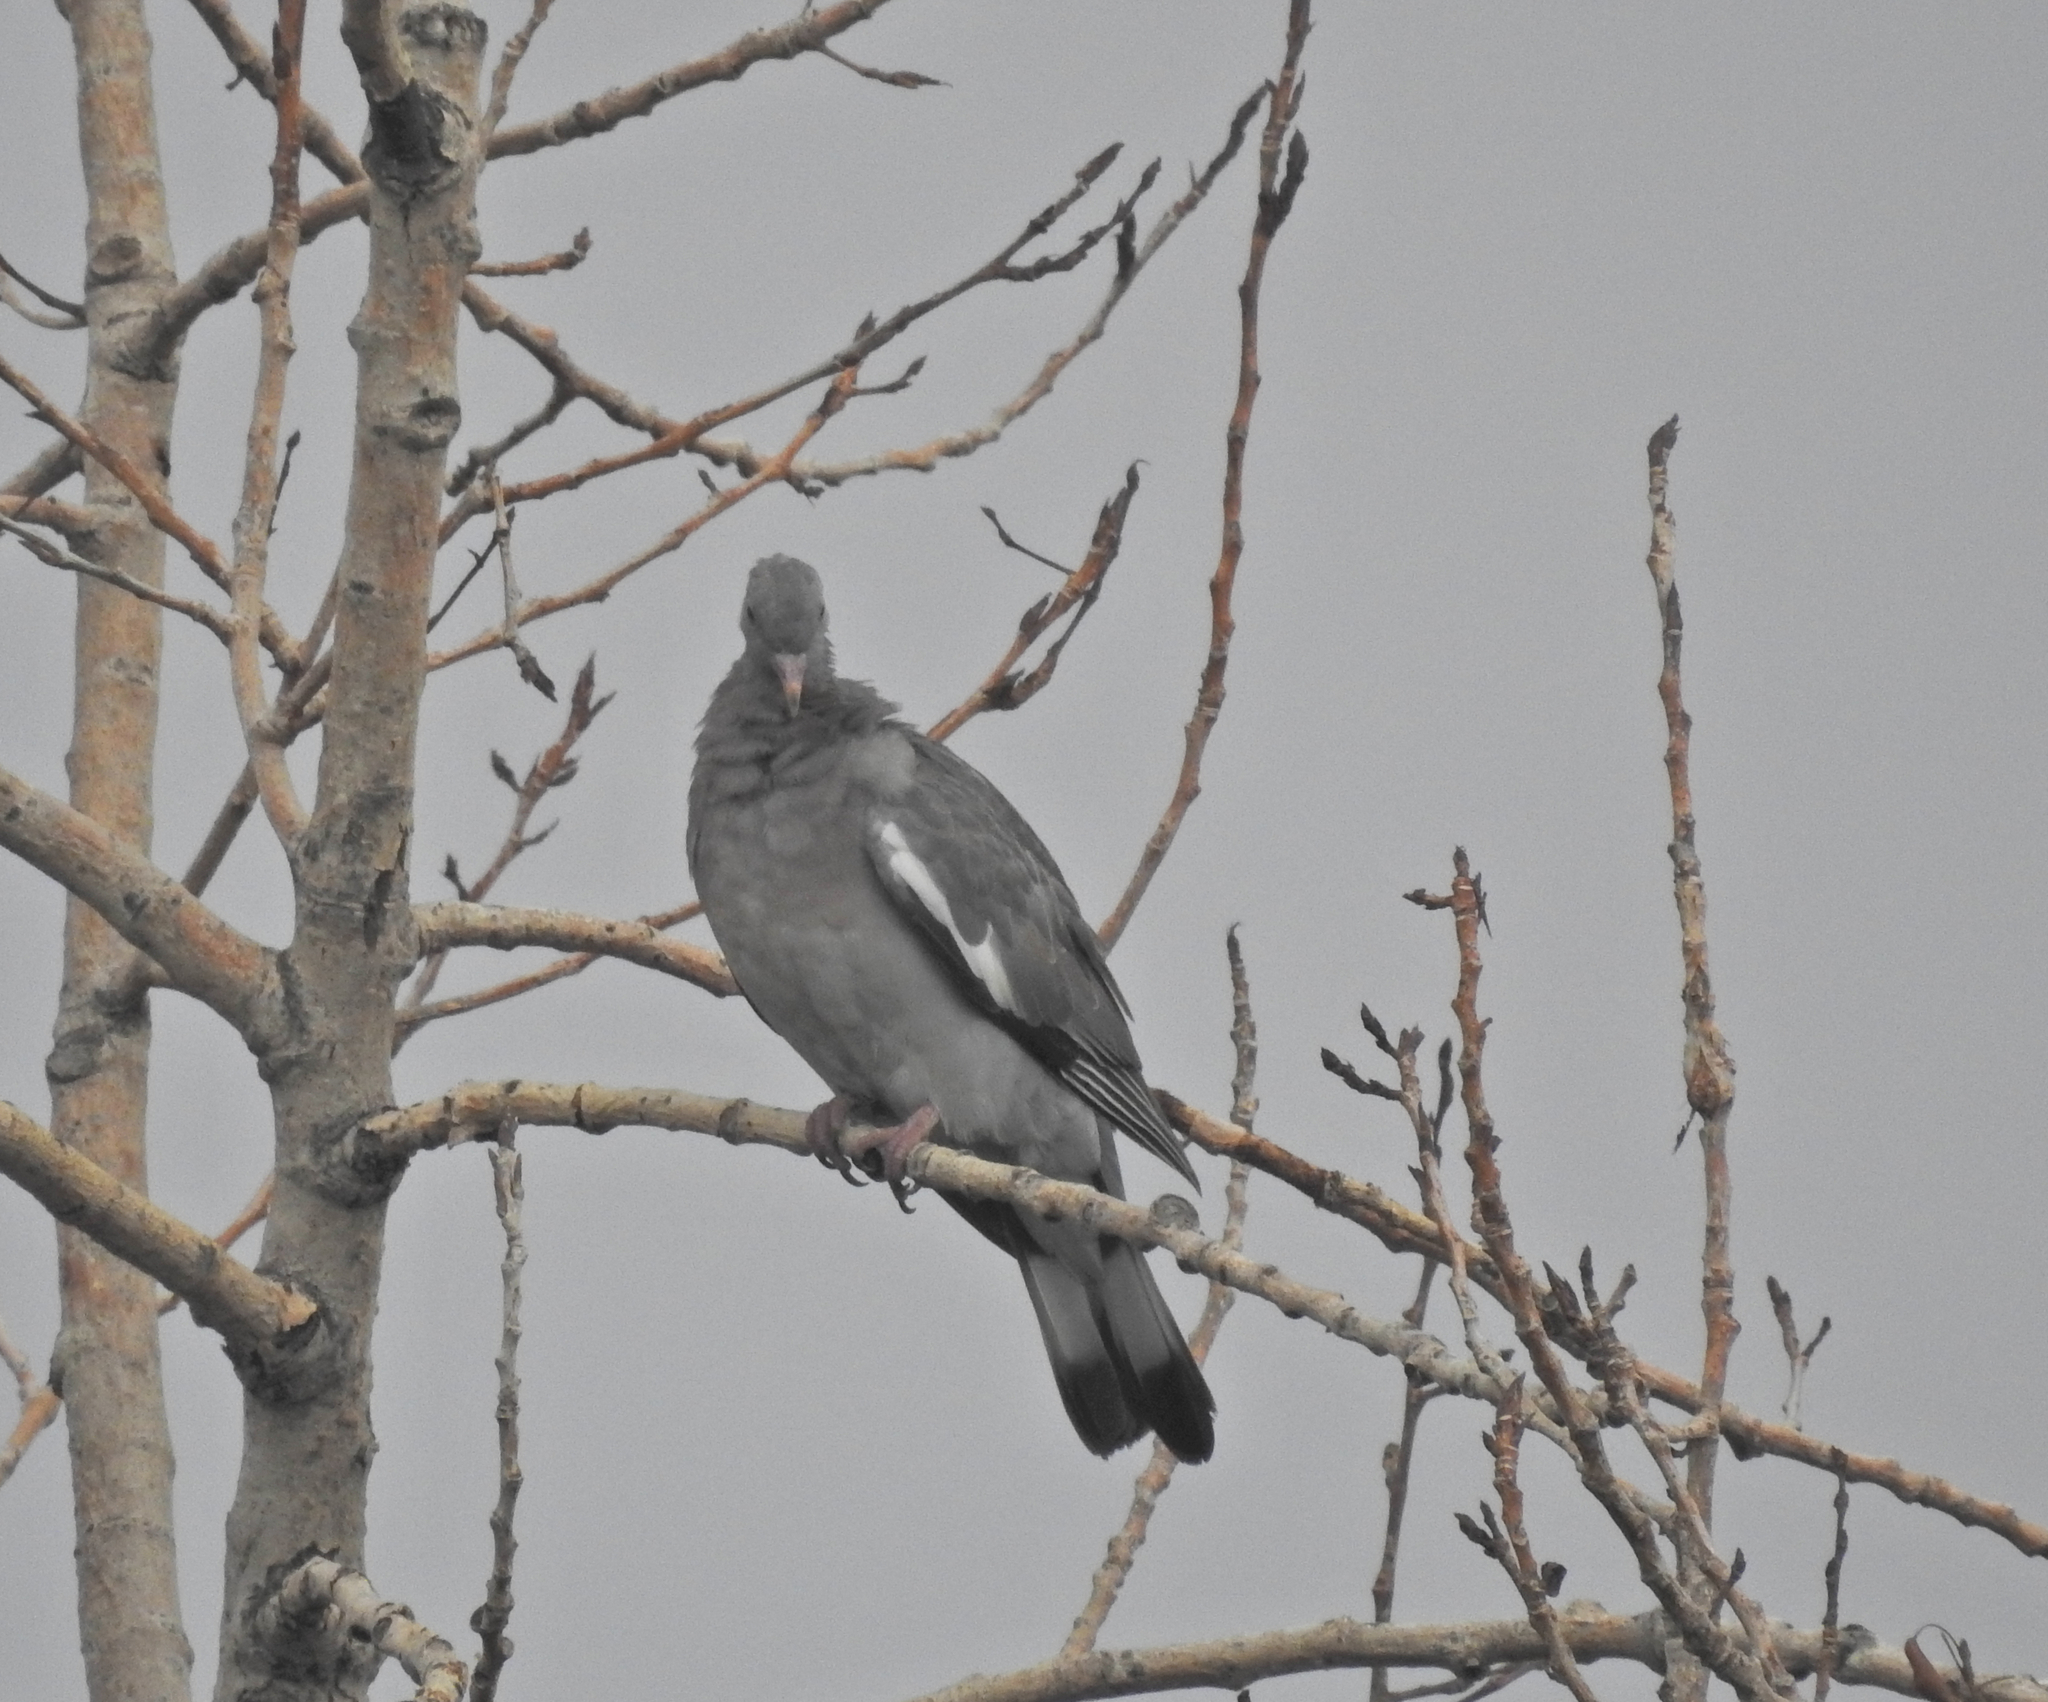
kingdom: Animalia
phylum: Chordata
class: Aves
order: Columbiformes
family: Columbidae
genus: Columba
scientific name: Columba palumbus
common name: Common wood pigeon
